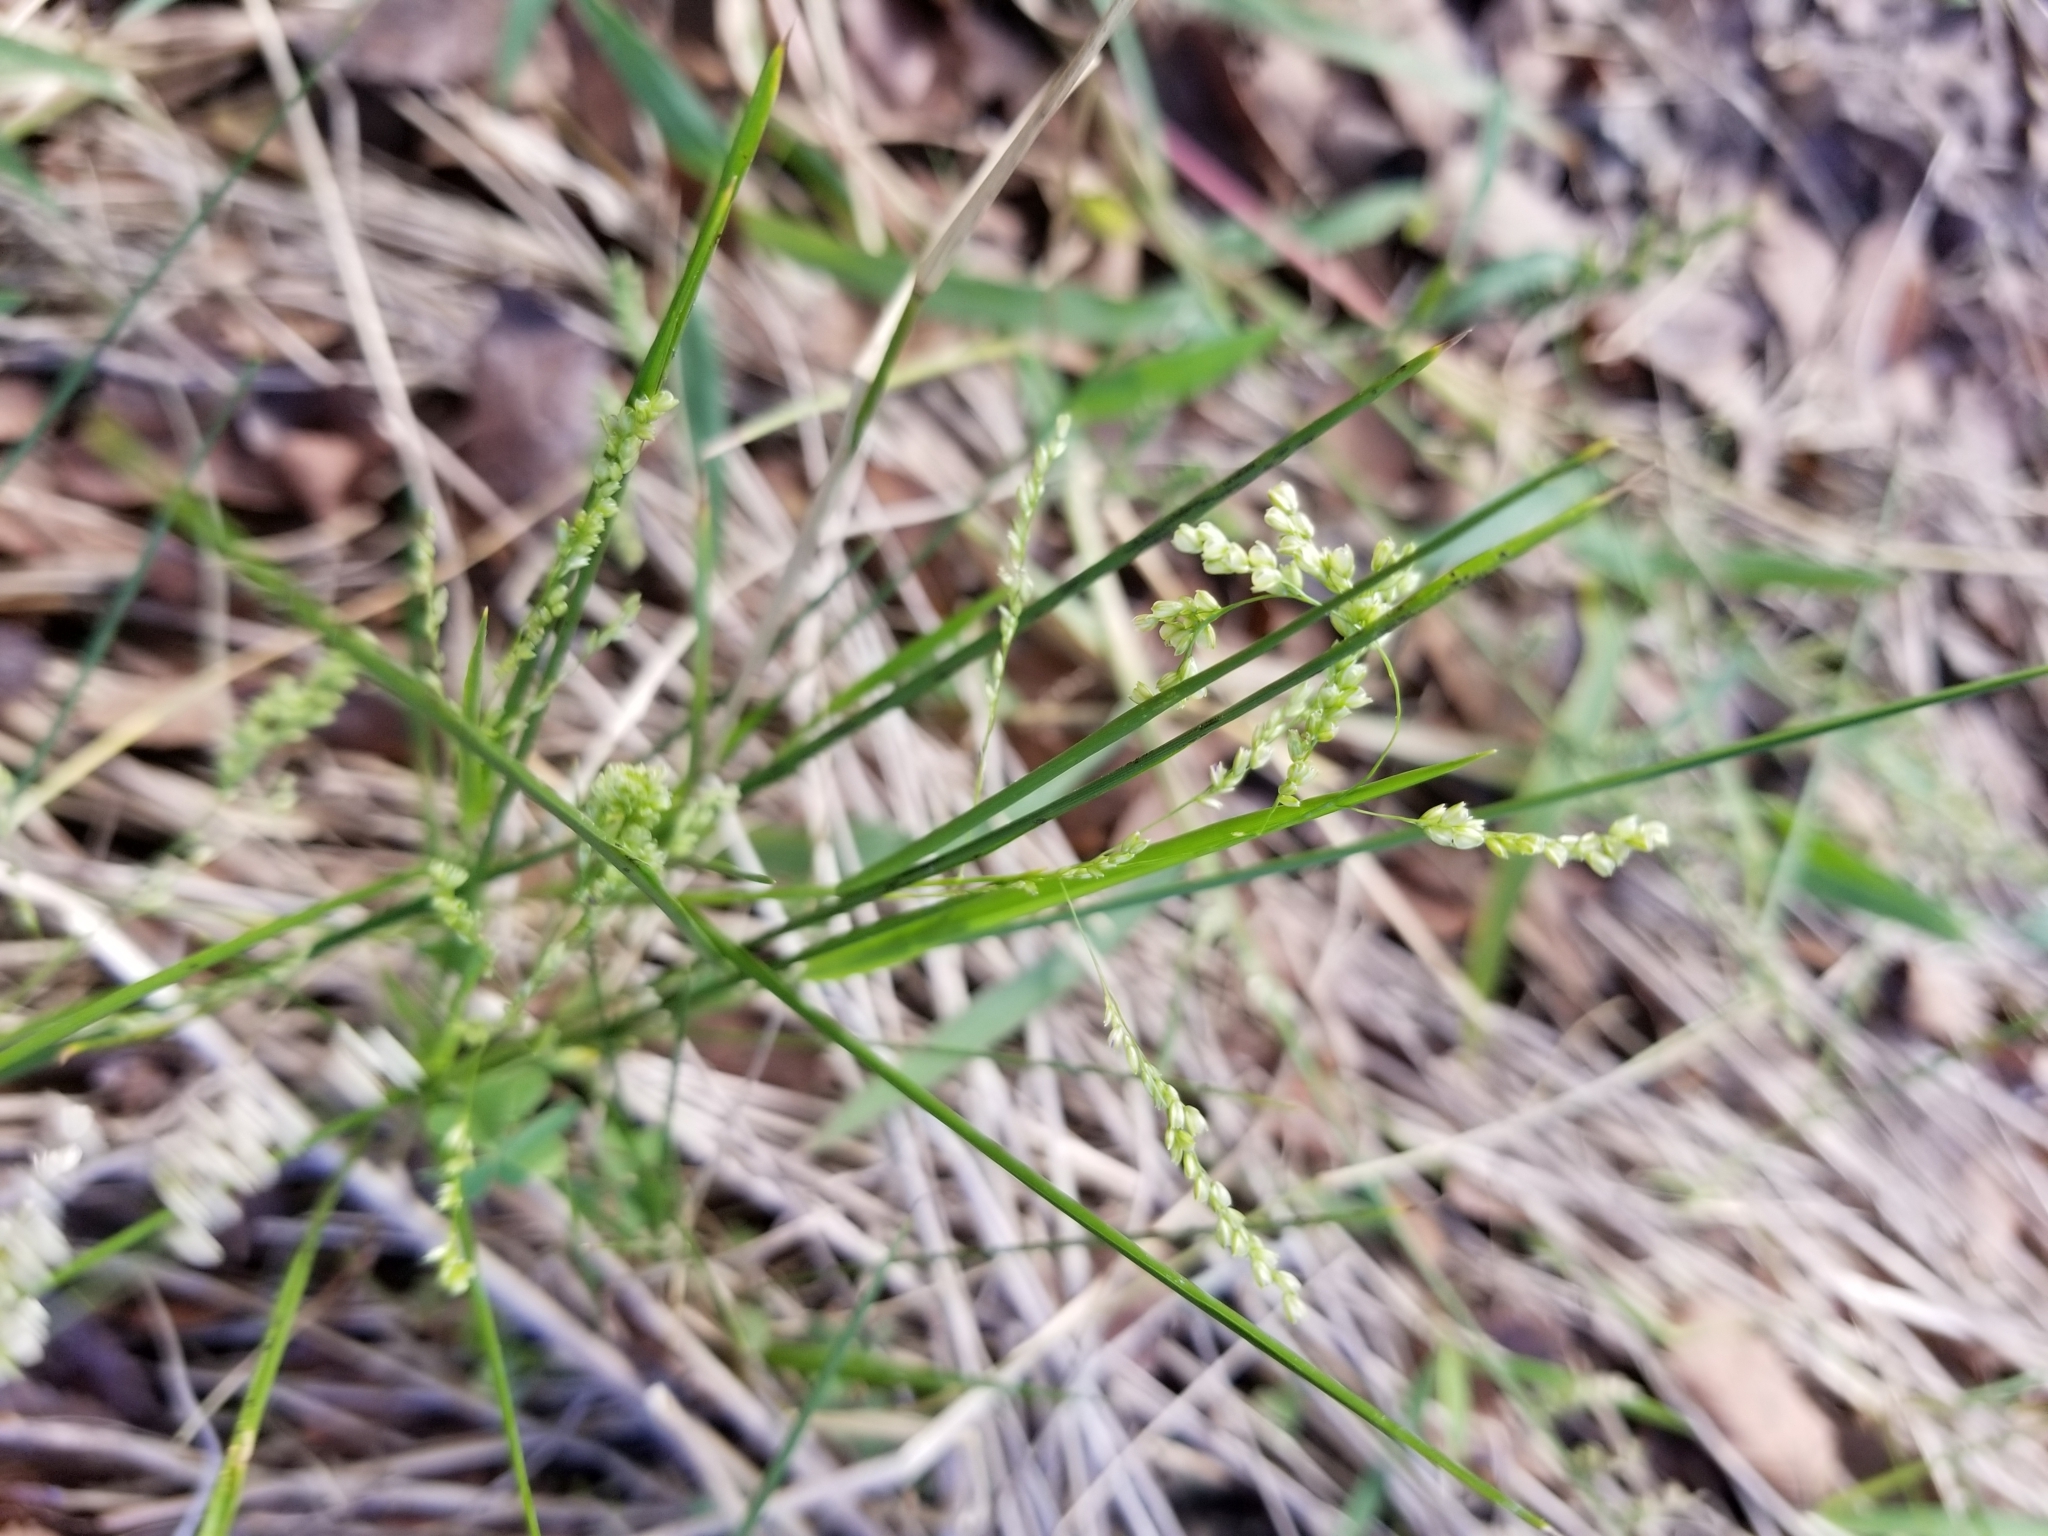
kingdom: Plantae
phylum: Tracheophyta
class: Liliopsida
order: Poales
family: Poaceae
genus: Steinchisma
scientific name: Steinchisma hians
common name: Gaping panic grass
